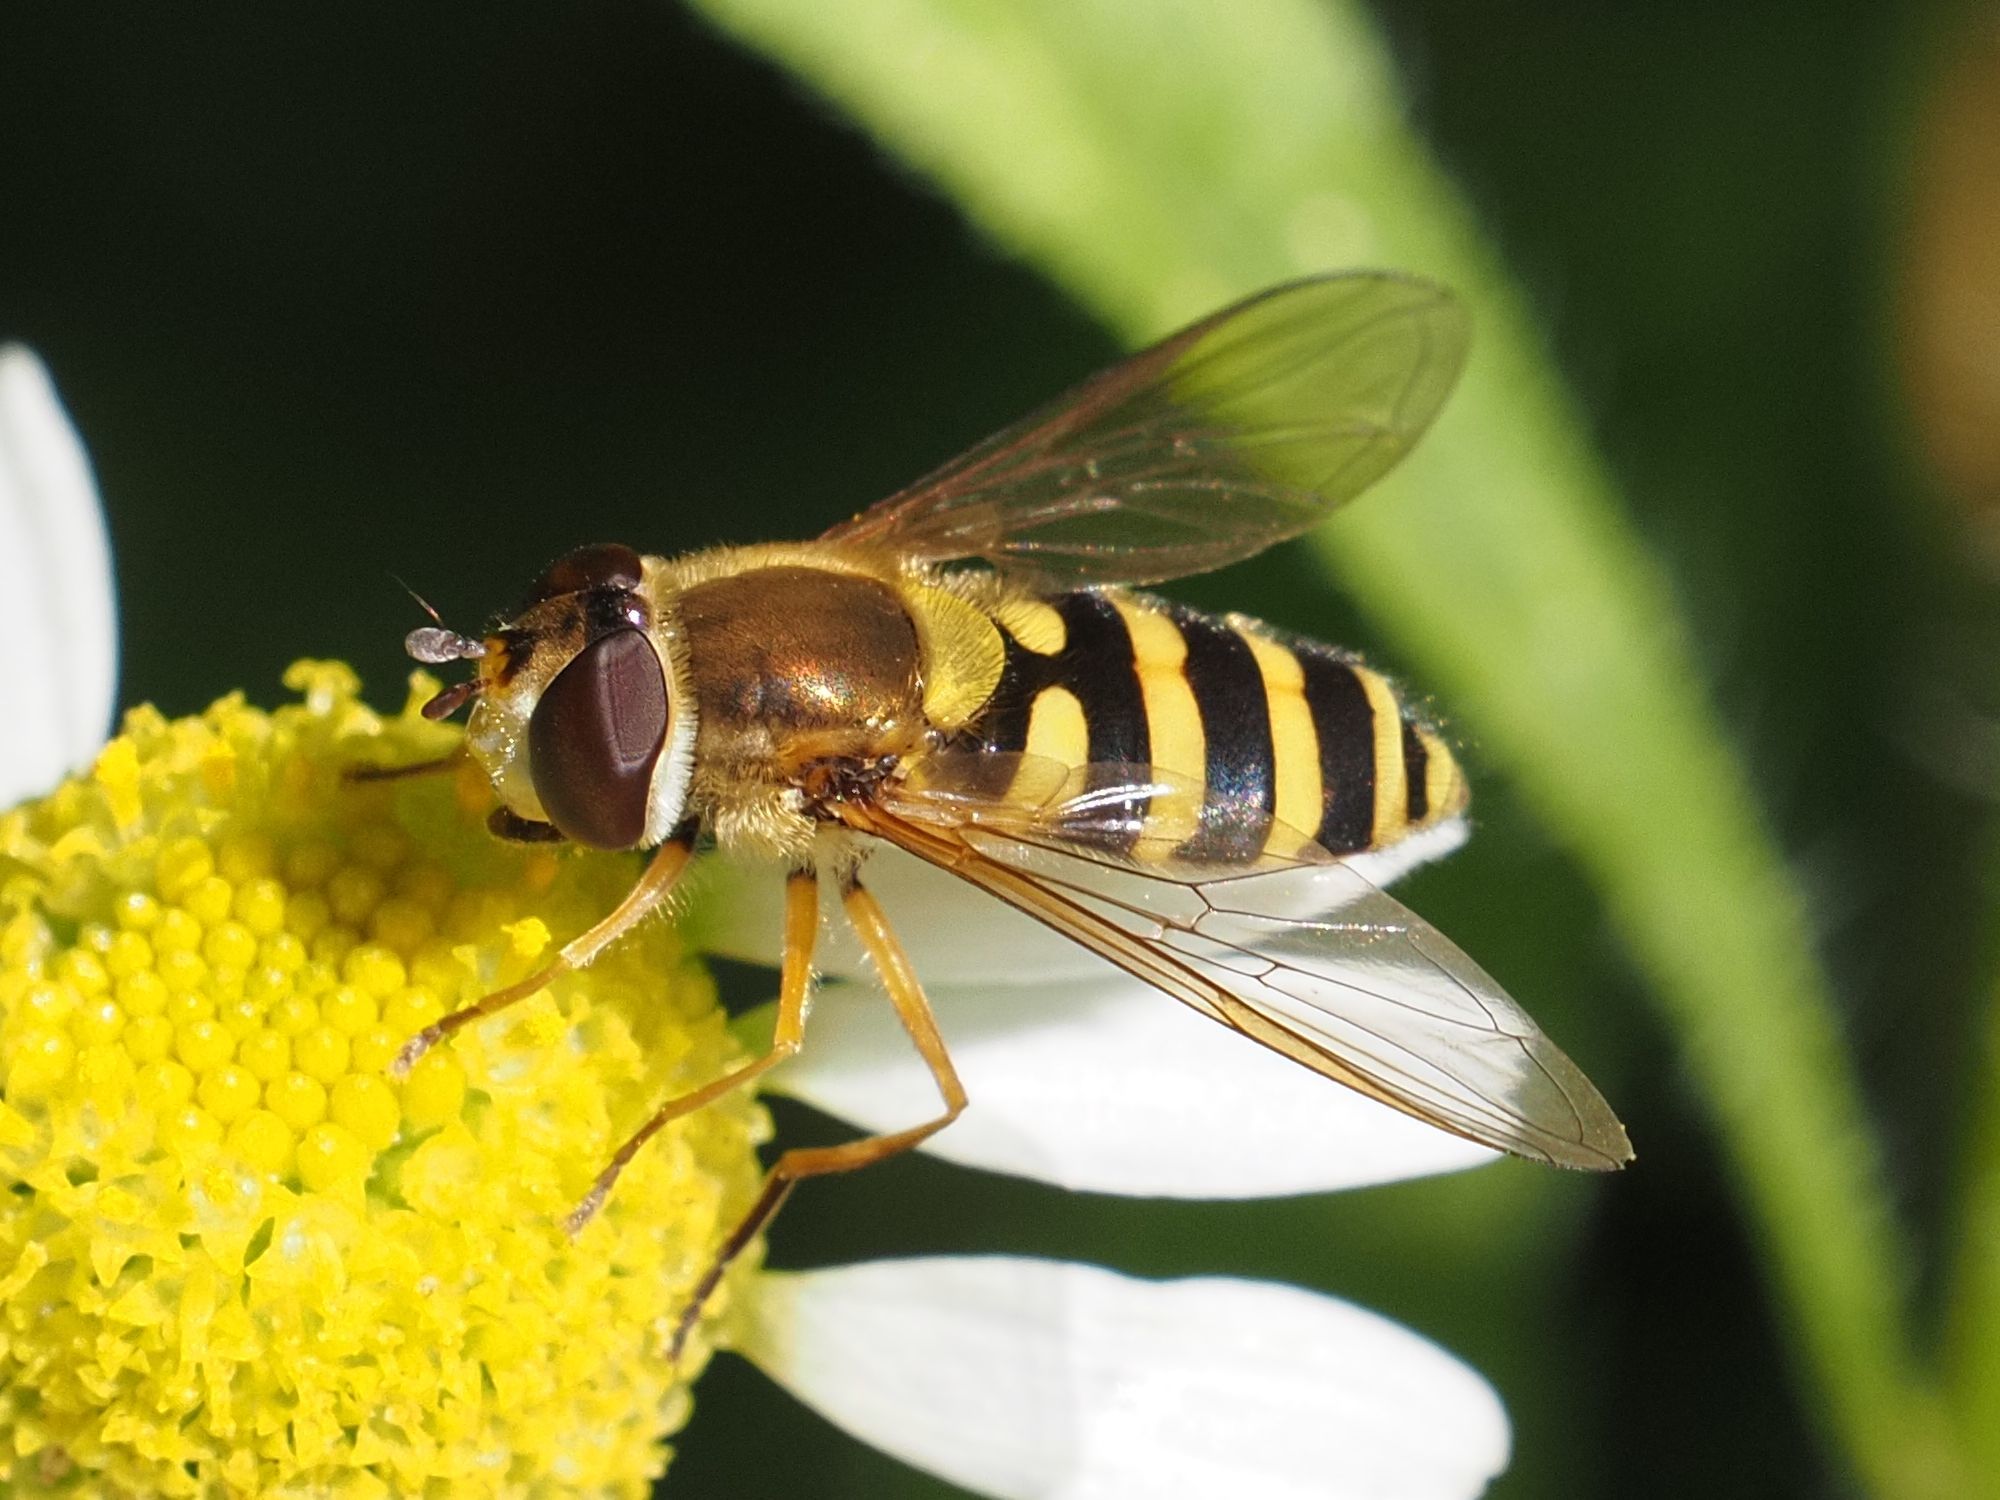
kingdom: Animalia
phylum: Arthropoda
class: Insecta
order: Diptera
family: Syrphidae
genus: Syrphus
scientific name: Syrphus ribesii
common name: Common flower fly
